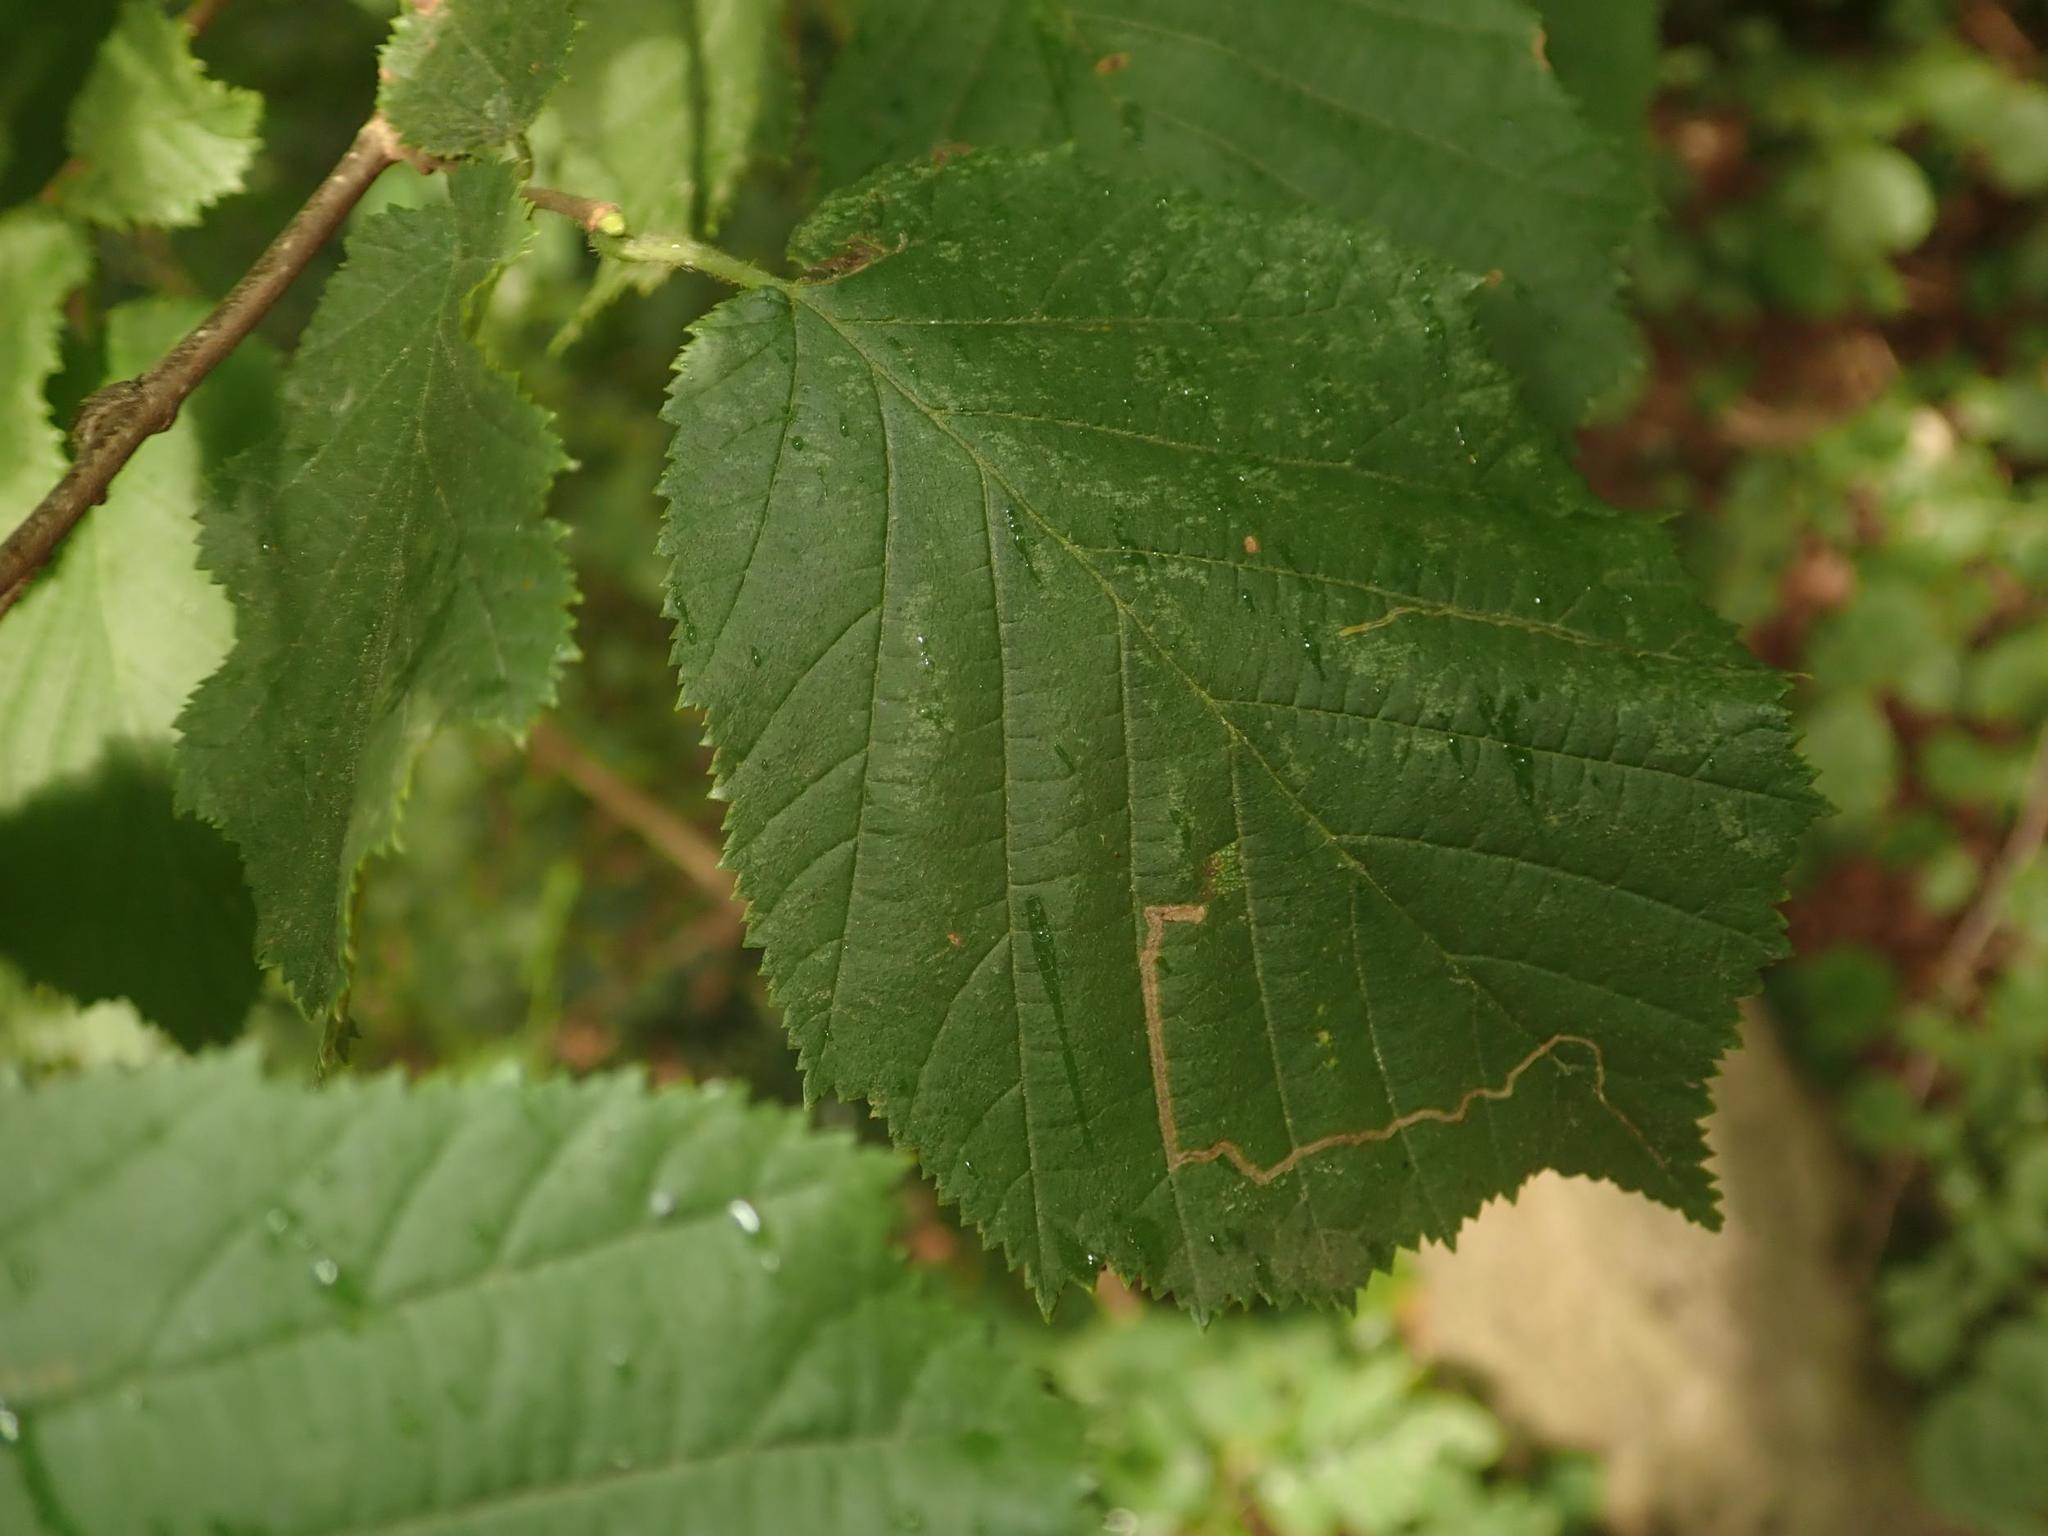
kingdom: Plantae
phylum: Tracheophyta
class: Magnoliopsida
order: Fagales
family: Betulaceae
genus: Corylus
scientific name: Corylus avellana
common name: European hazel
